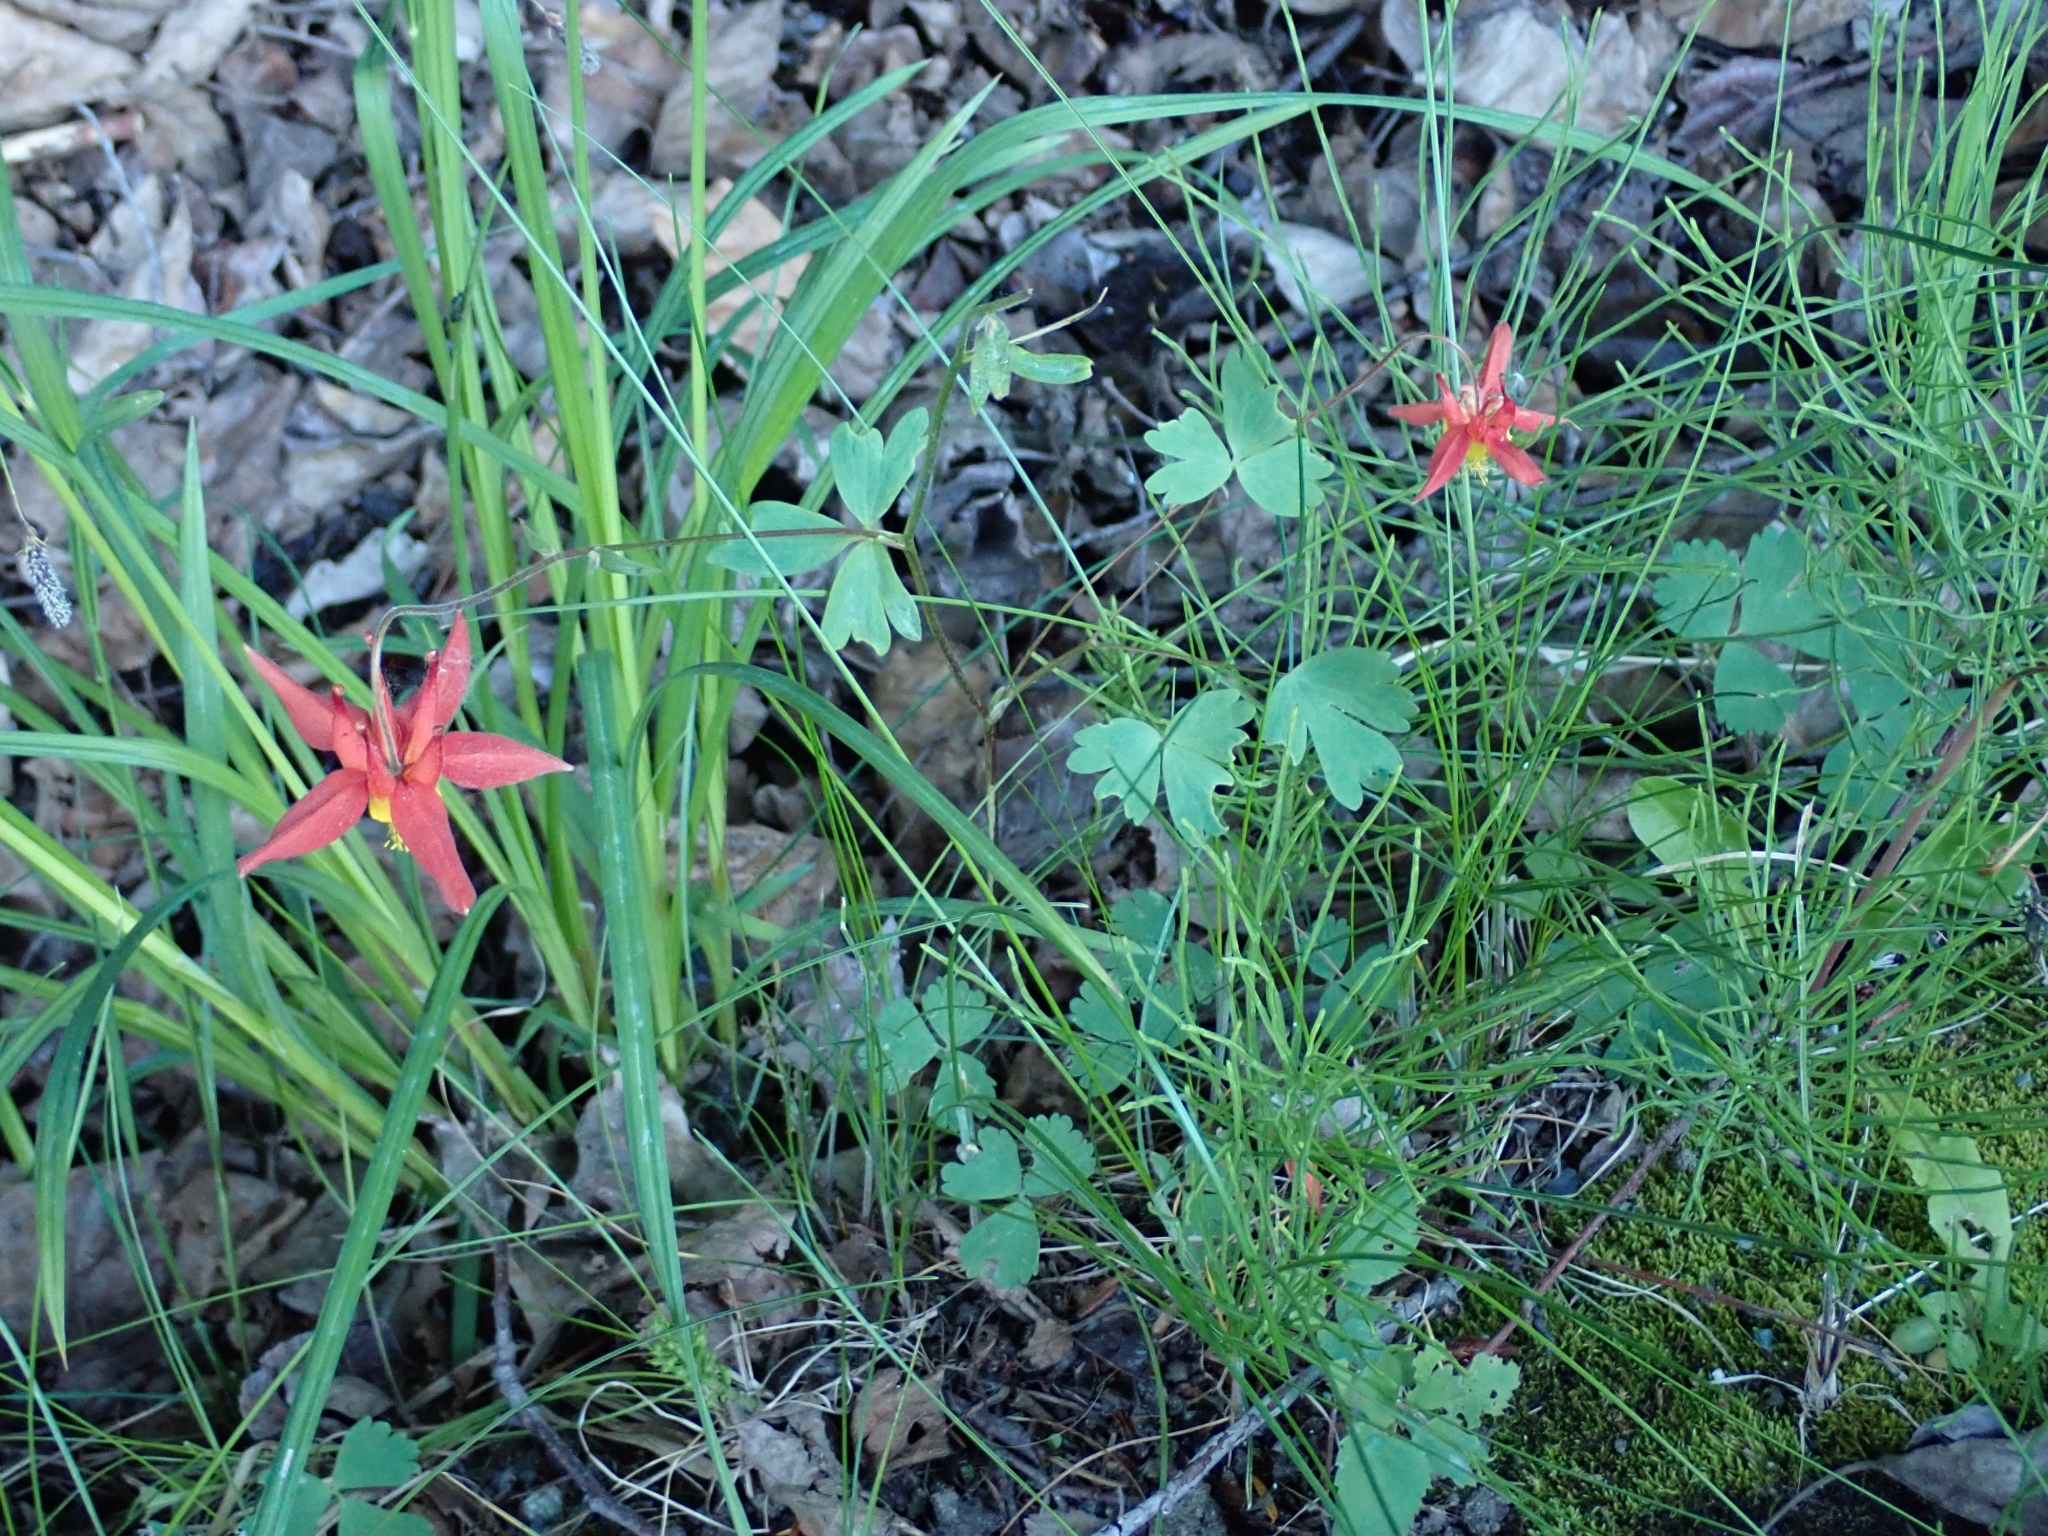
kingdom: Plantae
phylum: Tracheophyta
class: Magnoliopsida
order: Ranunculales
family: Ranunculaceae
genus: Aquilegia
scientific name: Aquilegia formosa
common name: Sitka columbine
